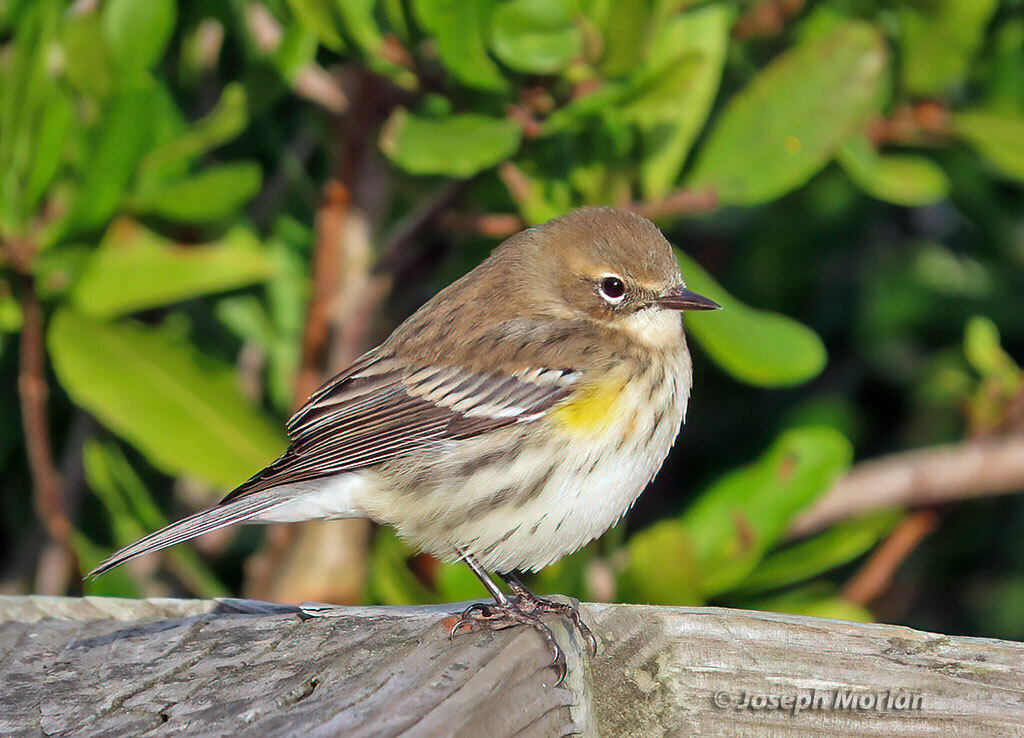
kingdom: Animalia
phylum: Chordata
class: Aves
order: Passeriformes
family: Parulidae
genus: Setophaga
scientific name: Setophaga coronata
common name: Myrtle warbler
